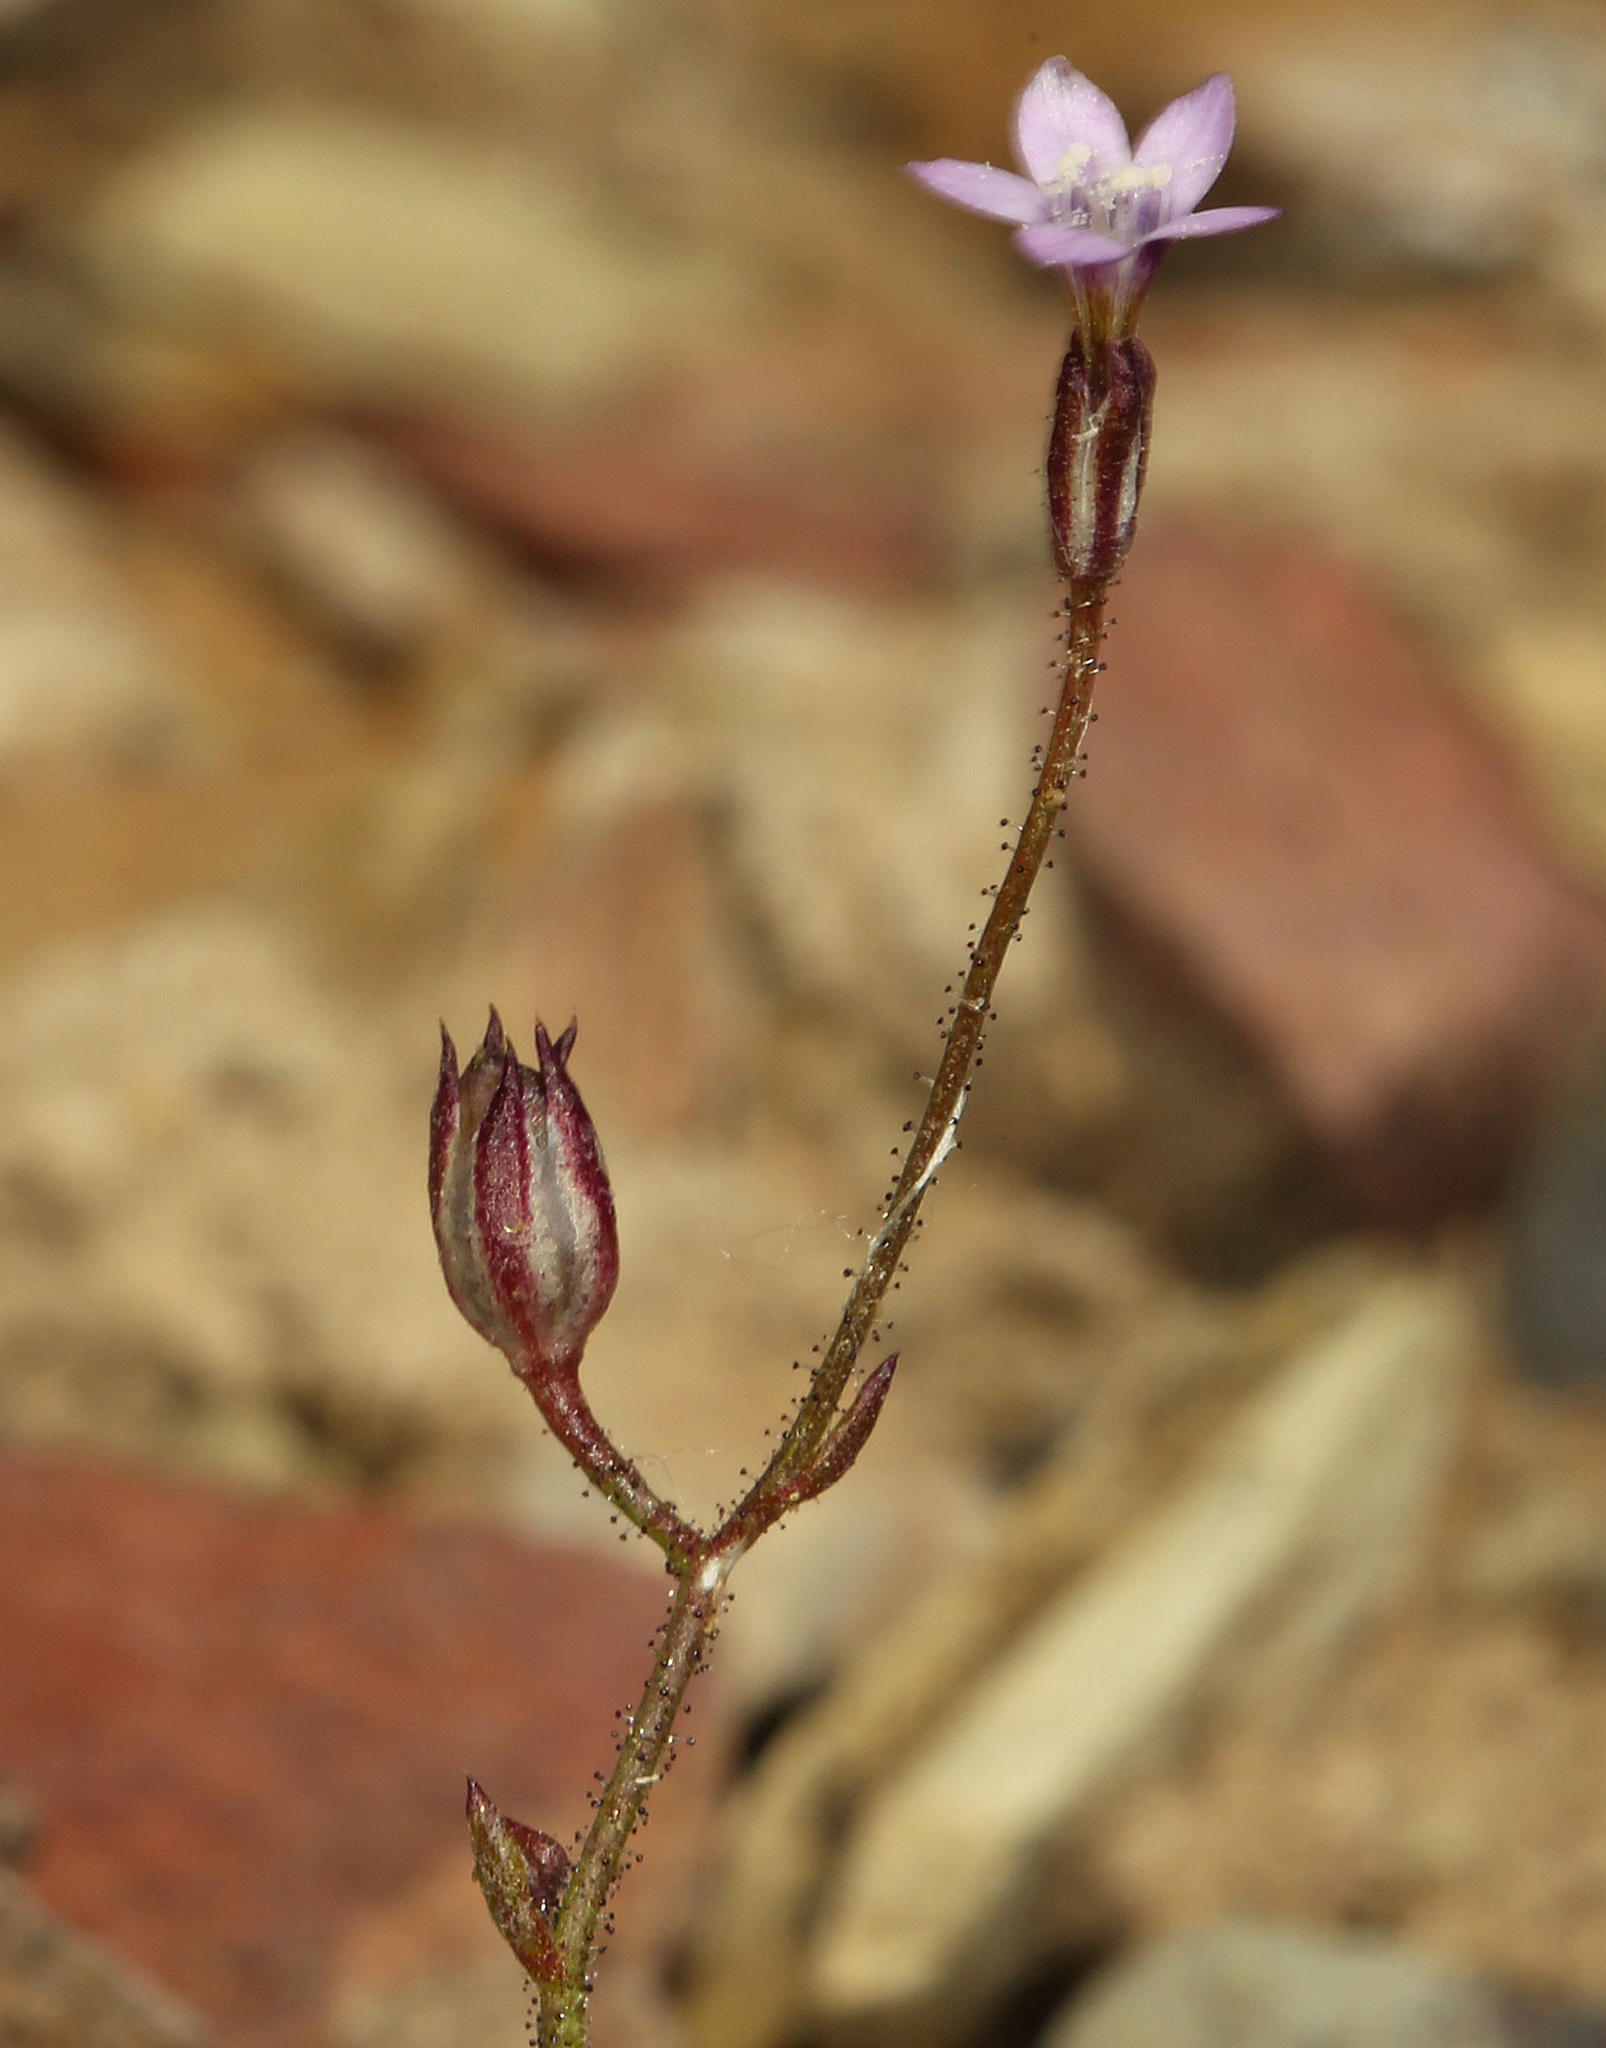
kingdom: Plantae
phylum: Tracheophyta
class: Magnoliopsida
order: Ericales
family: Polemoniaceae
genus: Gilia
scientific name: Gilia clokeyi
